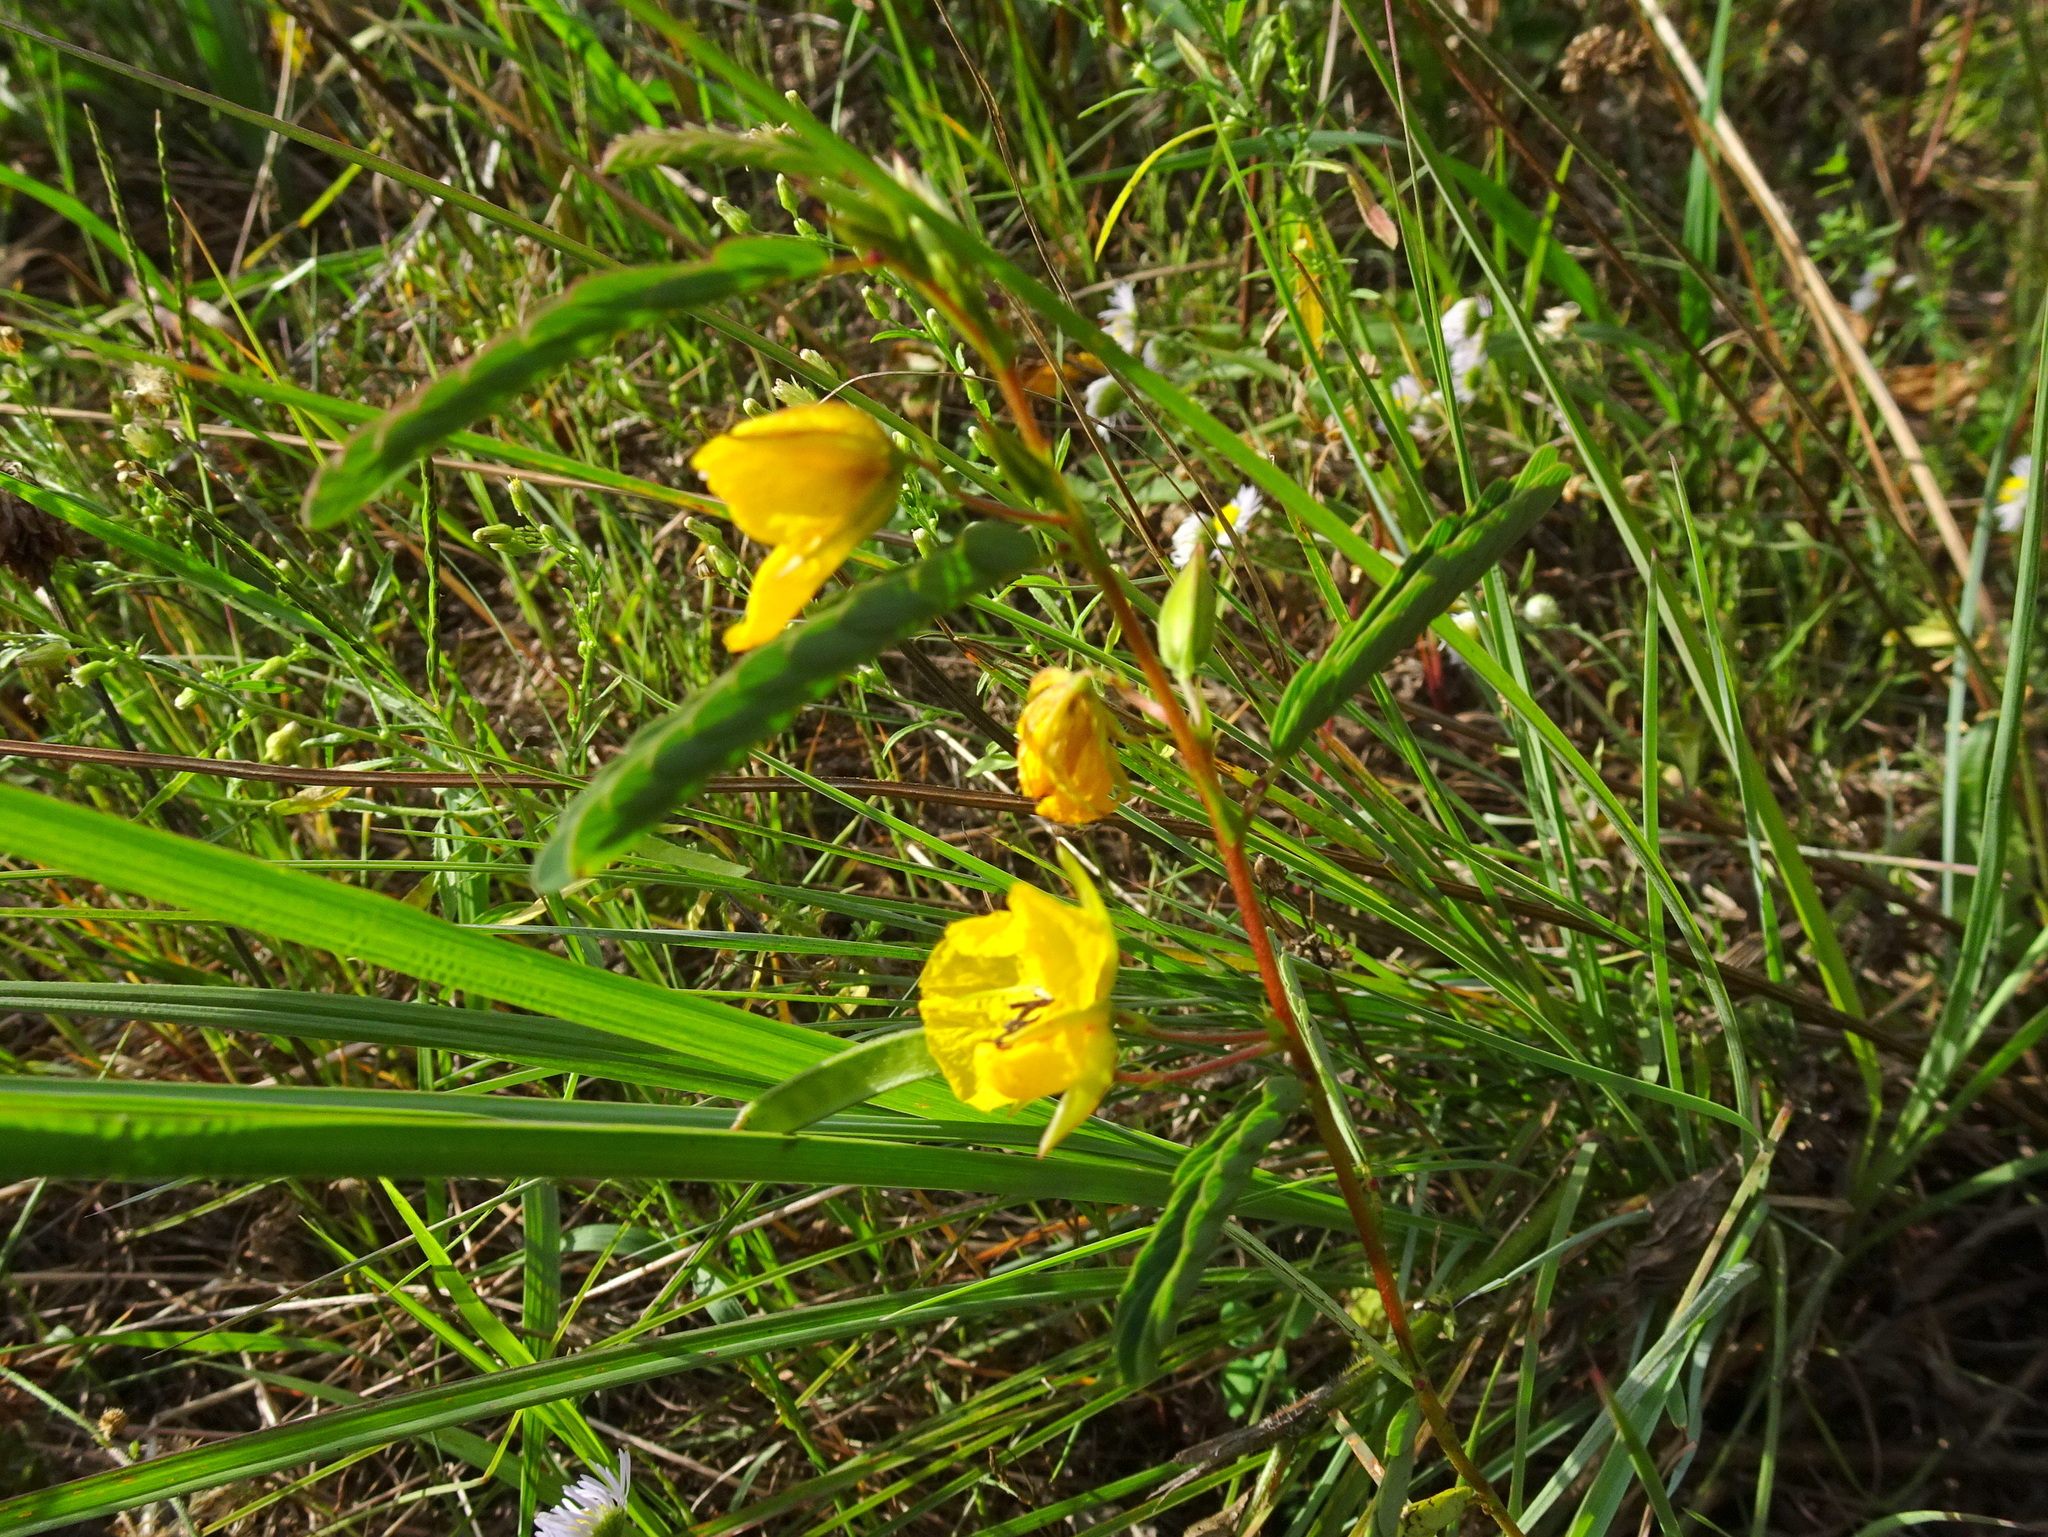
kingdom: Plantae
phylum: Tracheophyta
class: Magnoliopsida
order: Fabales
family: Fabaceae
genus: Chamaecrista
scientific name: Chamaecrista fasciculata
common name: Golden cassia
